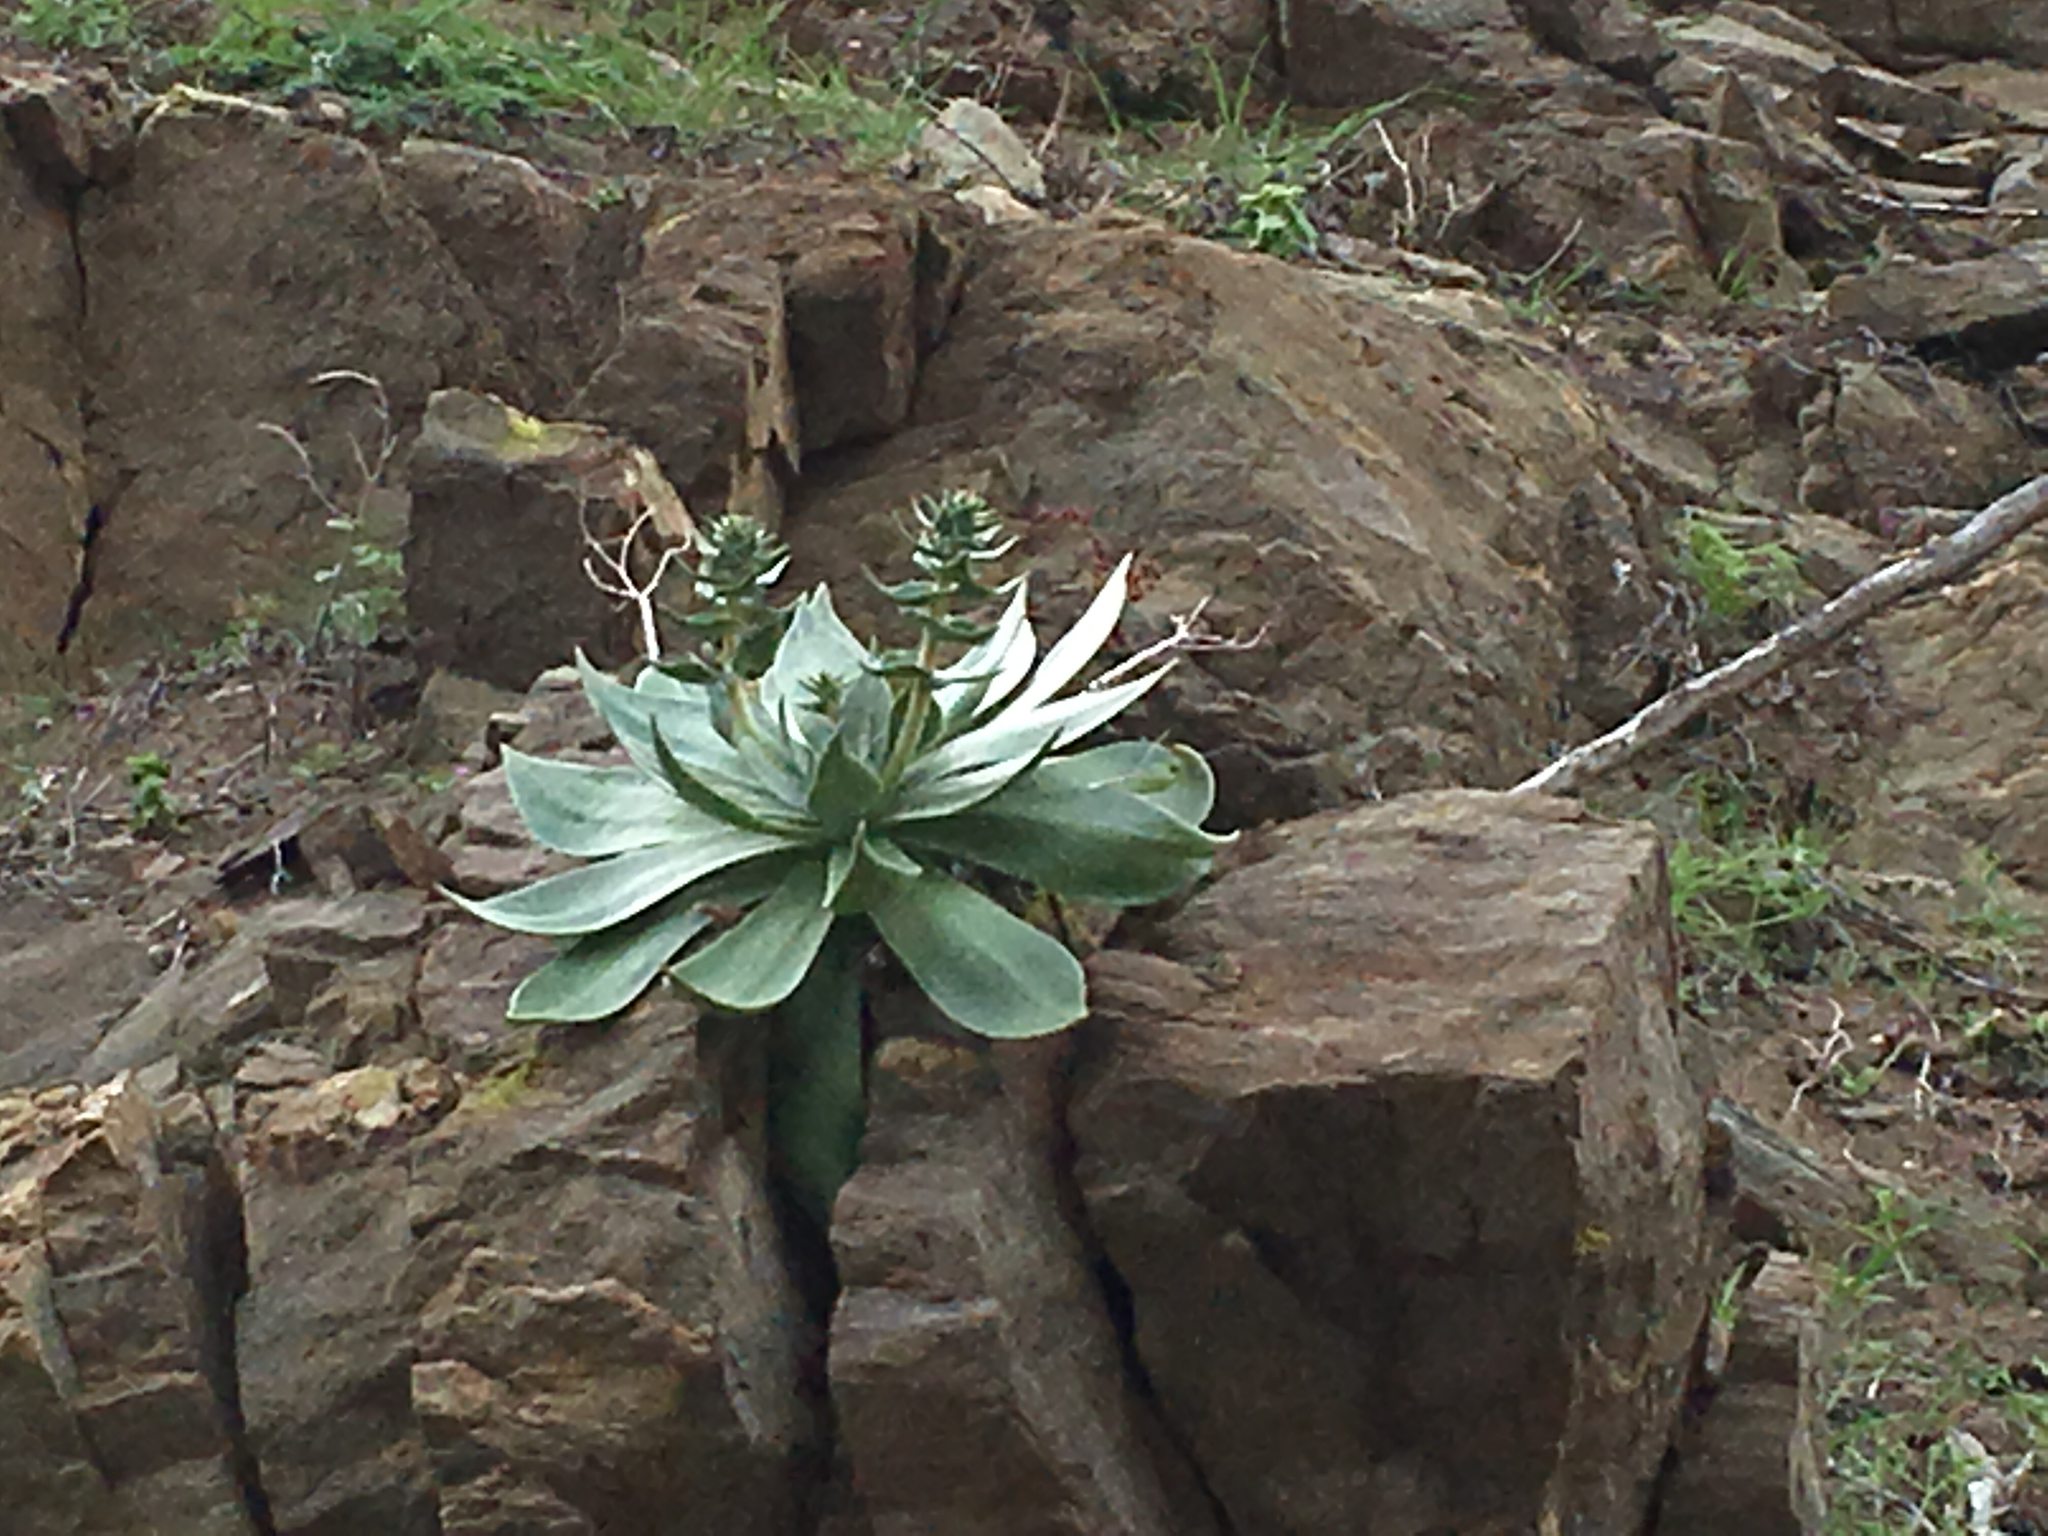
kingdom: Plantae
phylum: Tracheophyta
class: Magnoliopsida
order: Saxifragales
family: Crassulaceae
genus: Dudleya
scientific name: Dudleya arizonica
